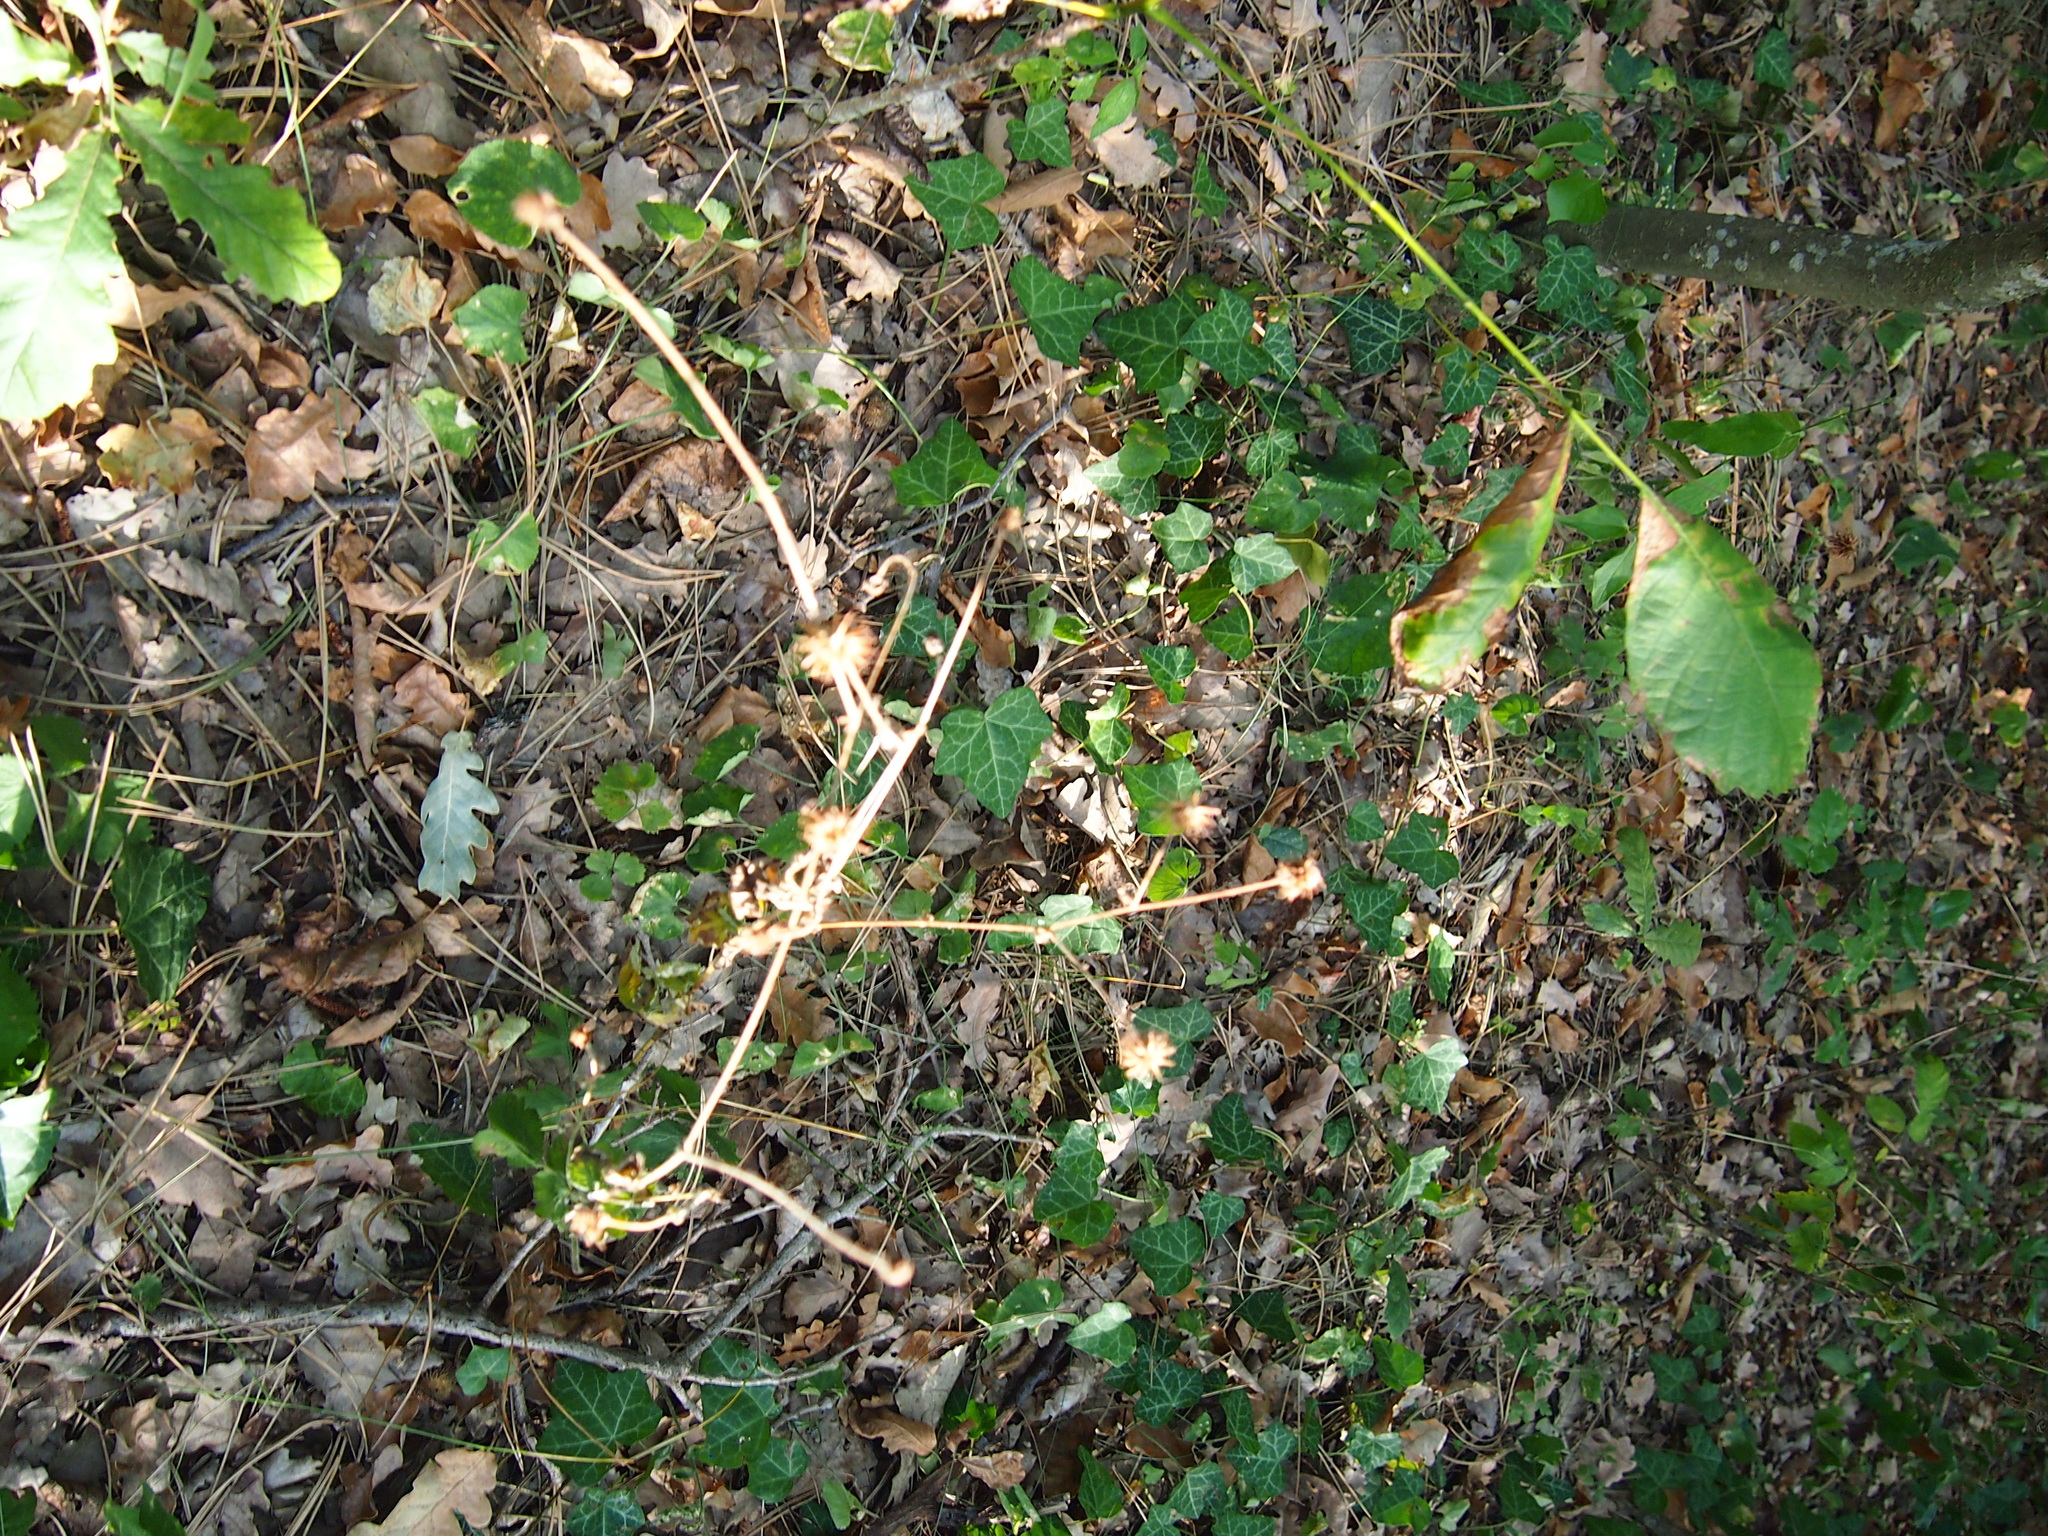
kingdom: Plantae
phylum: Tracheophyta
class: Magnoliopsida
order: Rosales
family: Rosaceae
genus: Geum
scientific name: Geum urbanum
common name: Wood avens
